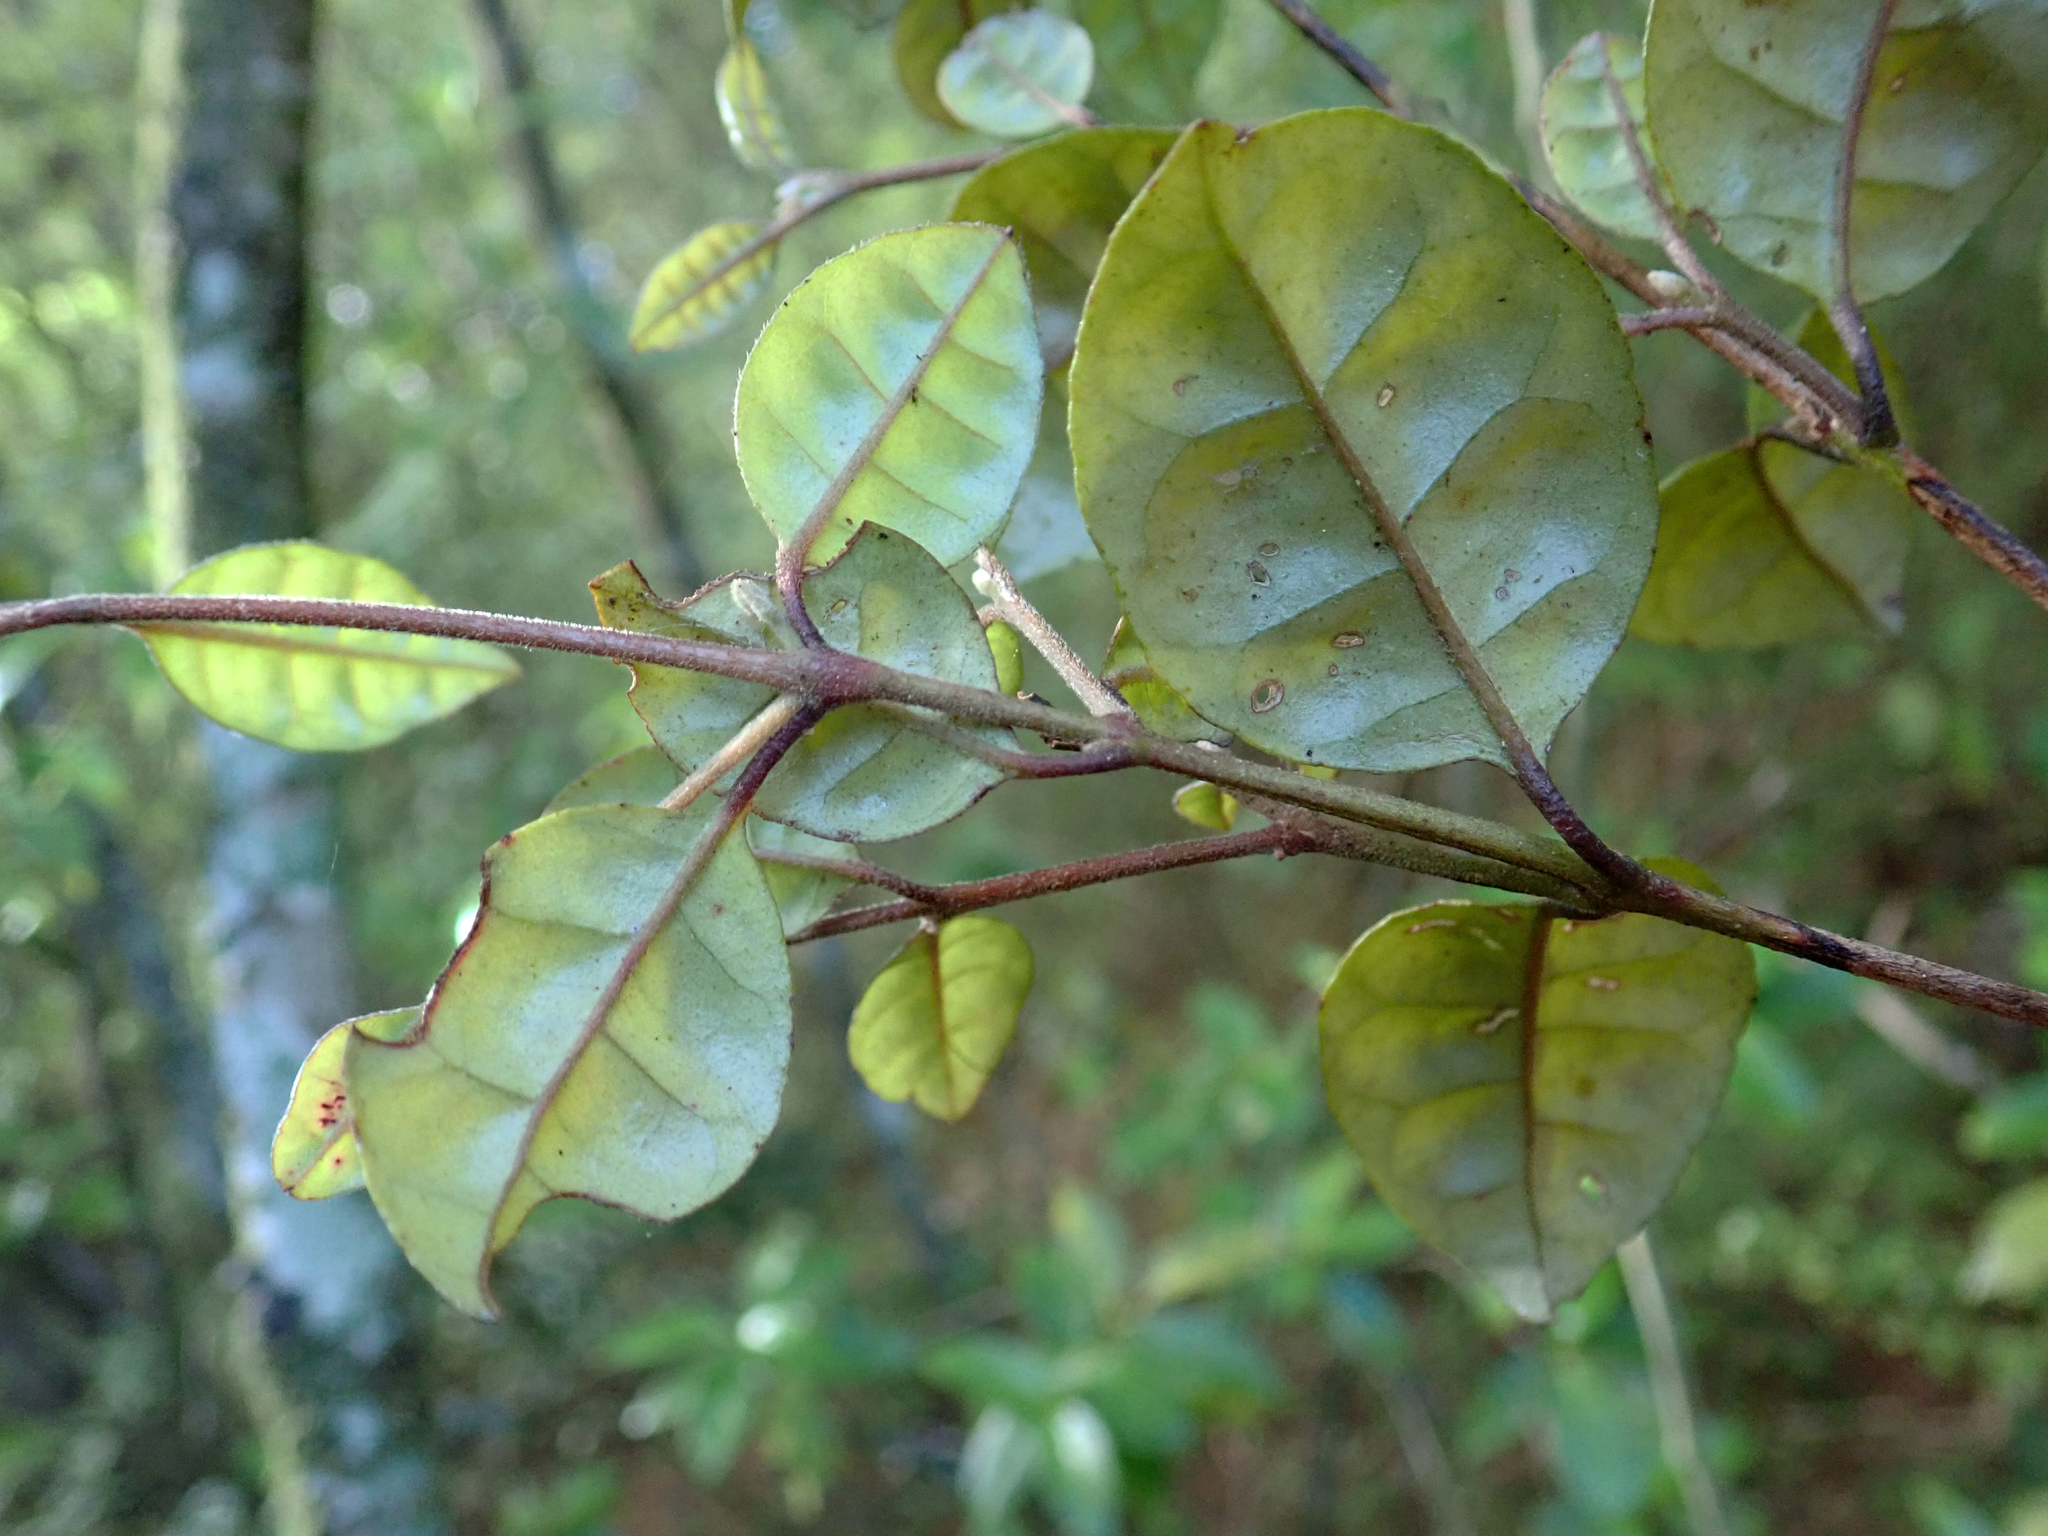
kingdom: Plantae
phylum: Tracheophyta
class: Magnoliopsida
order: Myrtales
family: Myrtaceae
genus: Lophomyrtus
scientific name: Lophomyrtus bullata
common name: Rama rama
